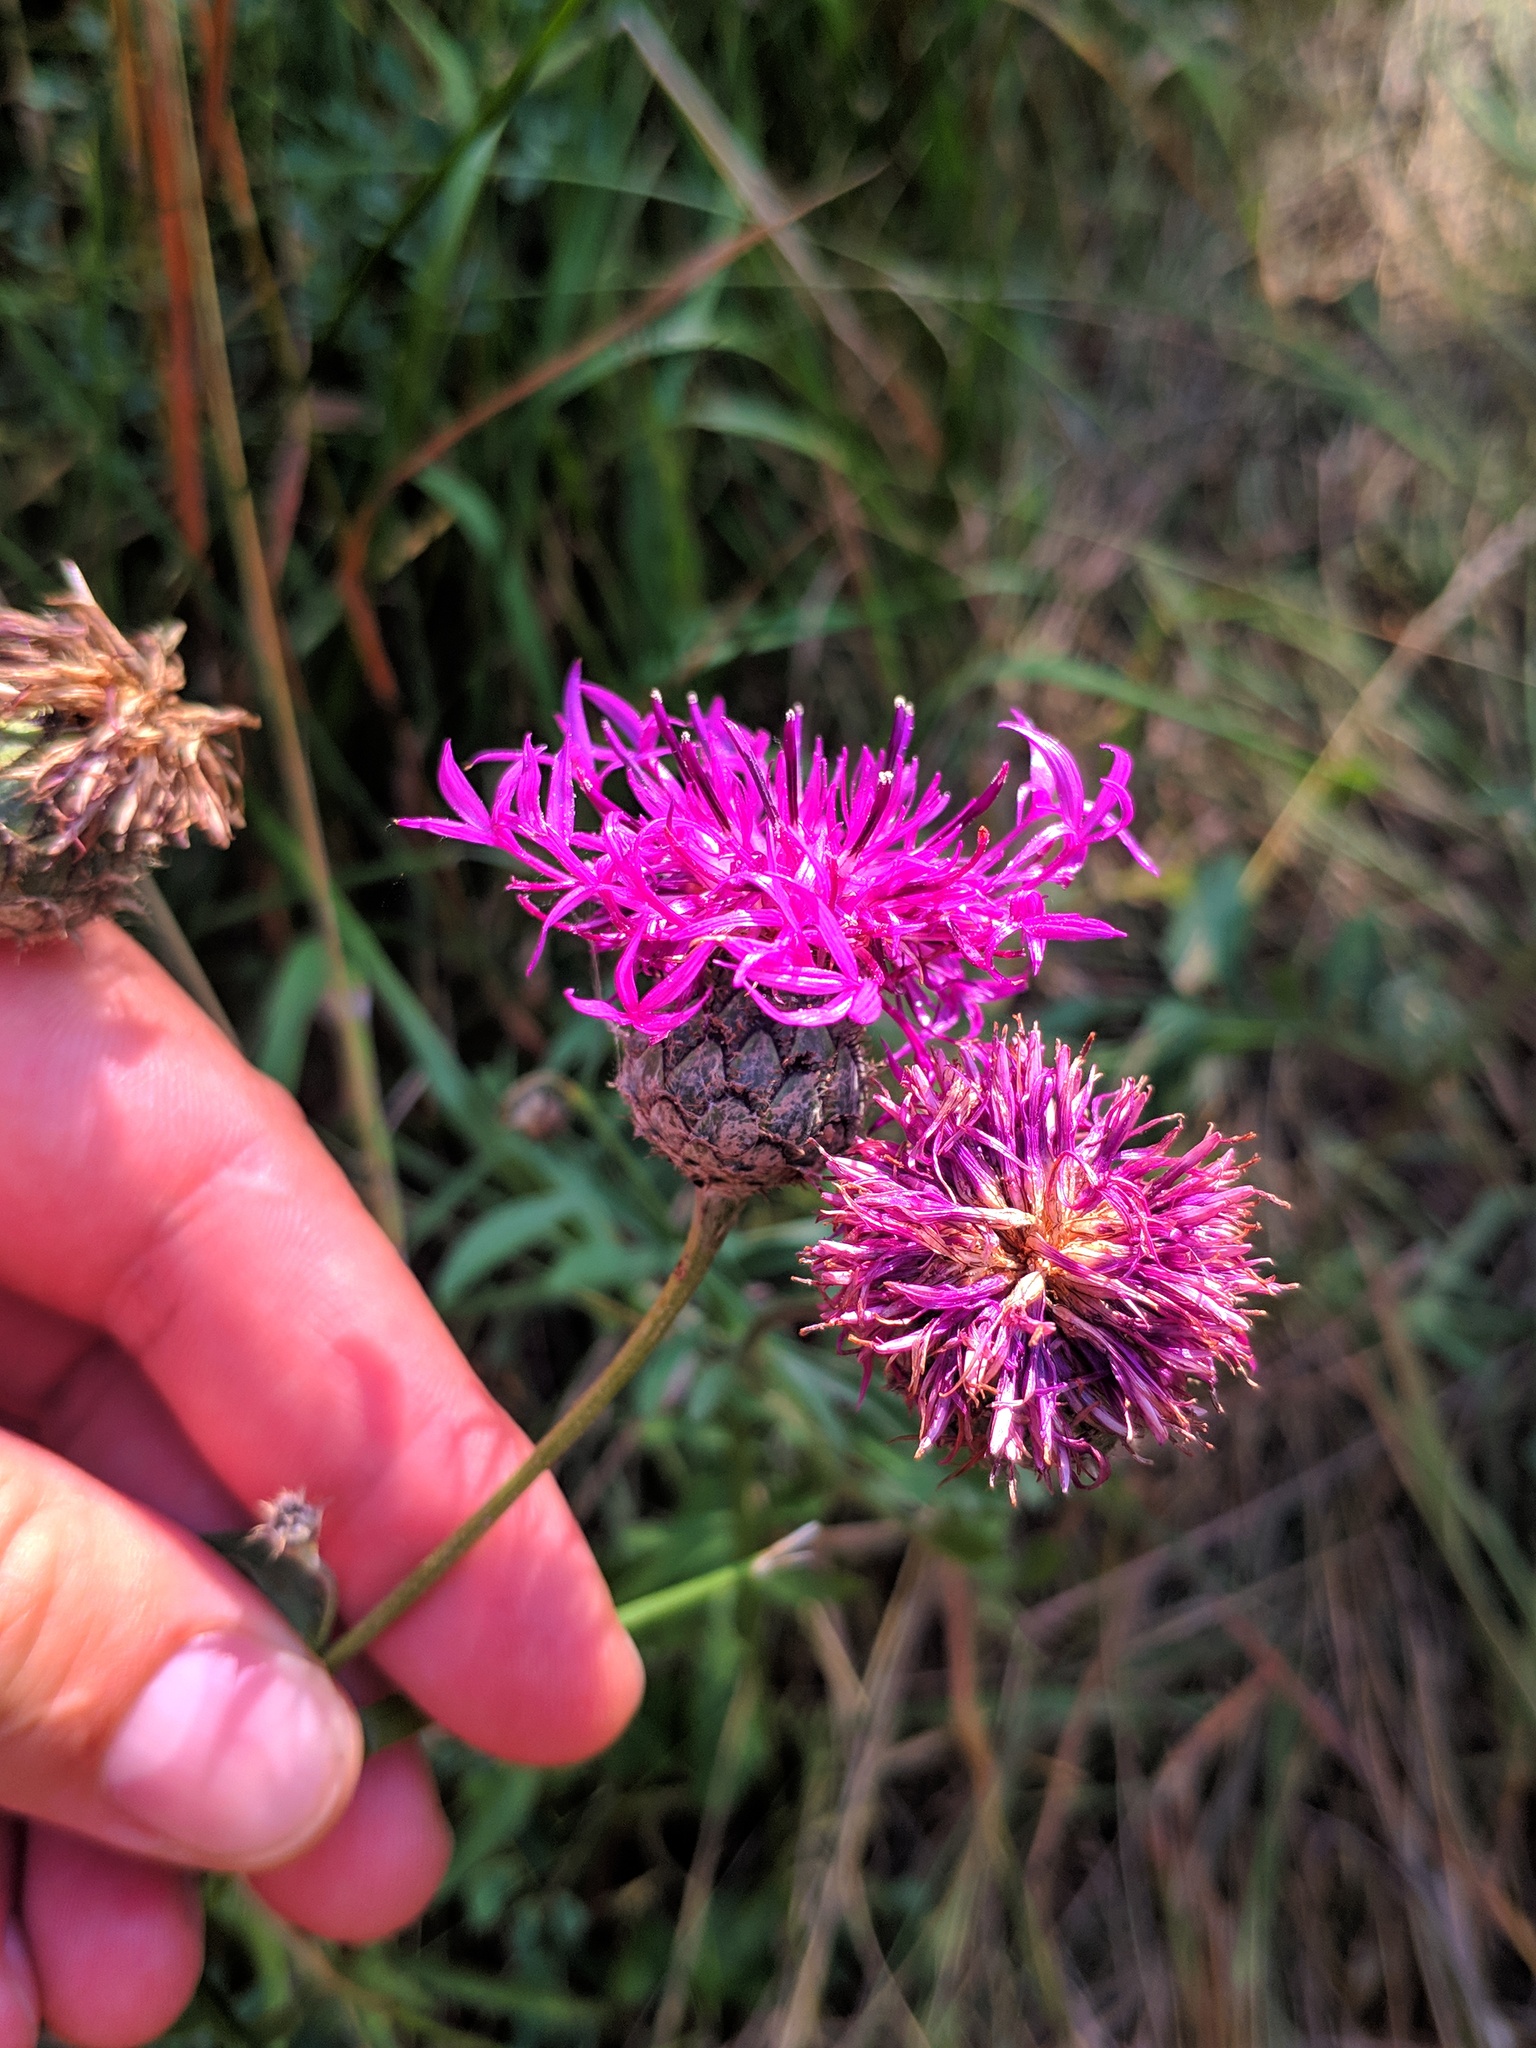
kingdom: Plantae
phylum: Tracheophyta
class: Magnoliopsida
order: Asterales
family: Asteraceae
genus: Centaurea
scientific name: Centaurea scabiosa
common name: Greater knapweed
